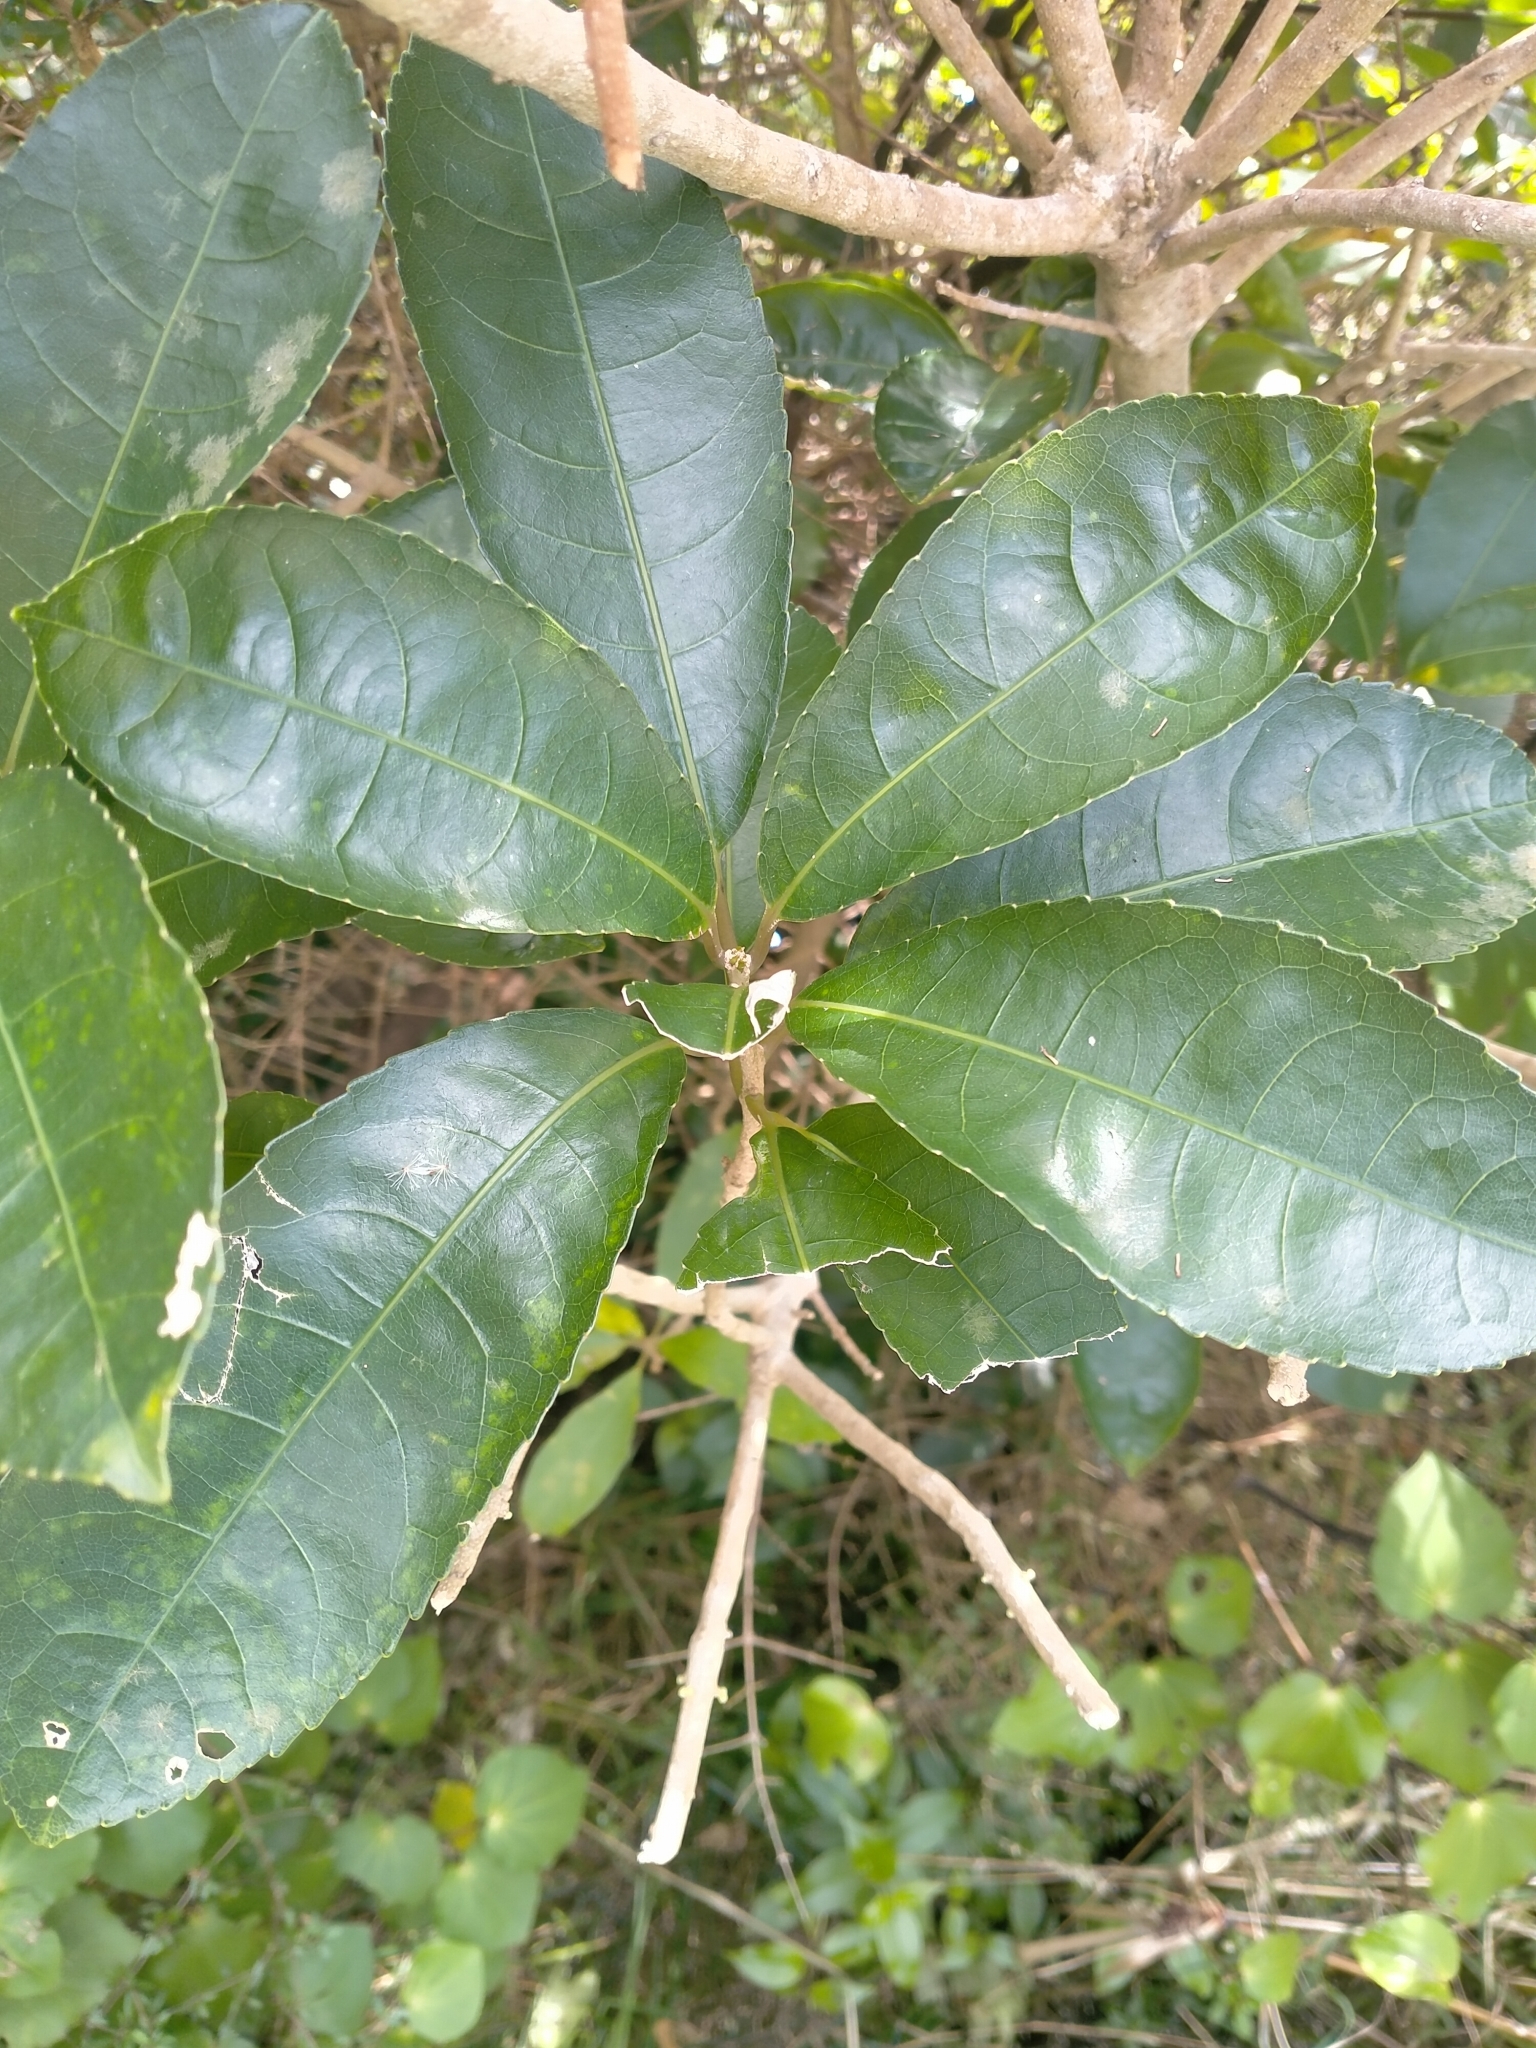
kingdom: Plantae
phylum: Tracheophyta
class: Magnoliopsida
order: Malpighiales
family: Violaceae
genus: Melicytus
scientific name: Melicytus ramiflorus
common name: Mahoe
